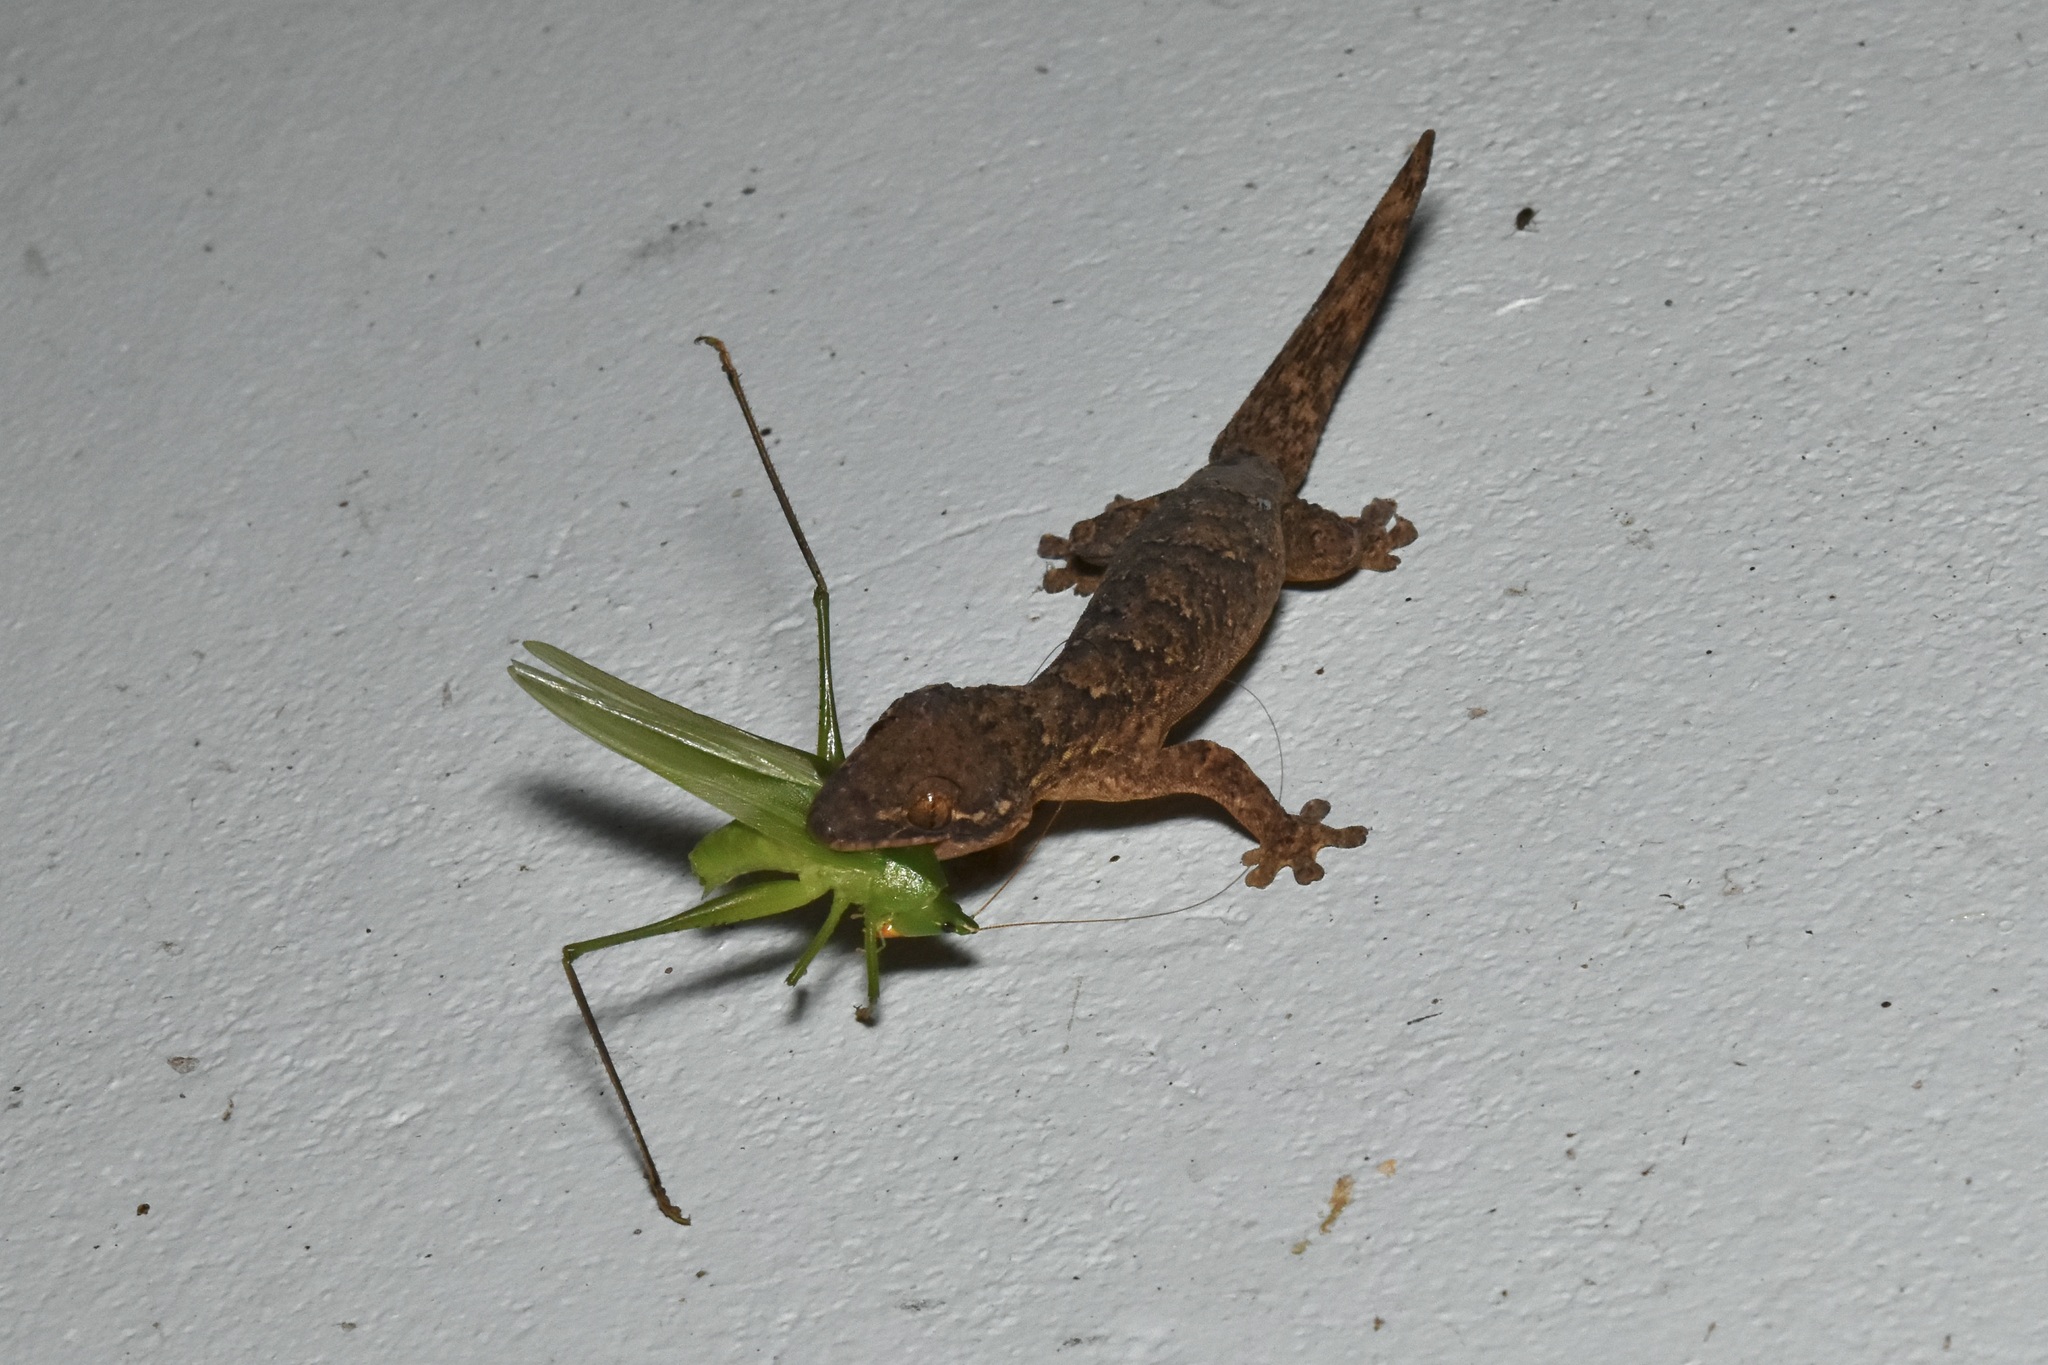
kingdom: Animalia
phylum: Chordata
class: Squamata
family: Phyllodactylidae
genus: Thecadactylus
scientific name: Thecadactylus rapicauda
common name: Turnip-tailed gecko
